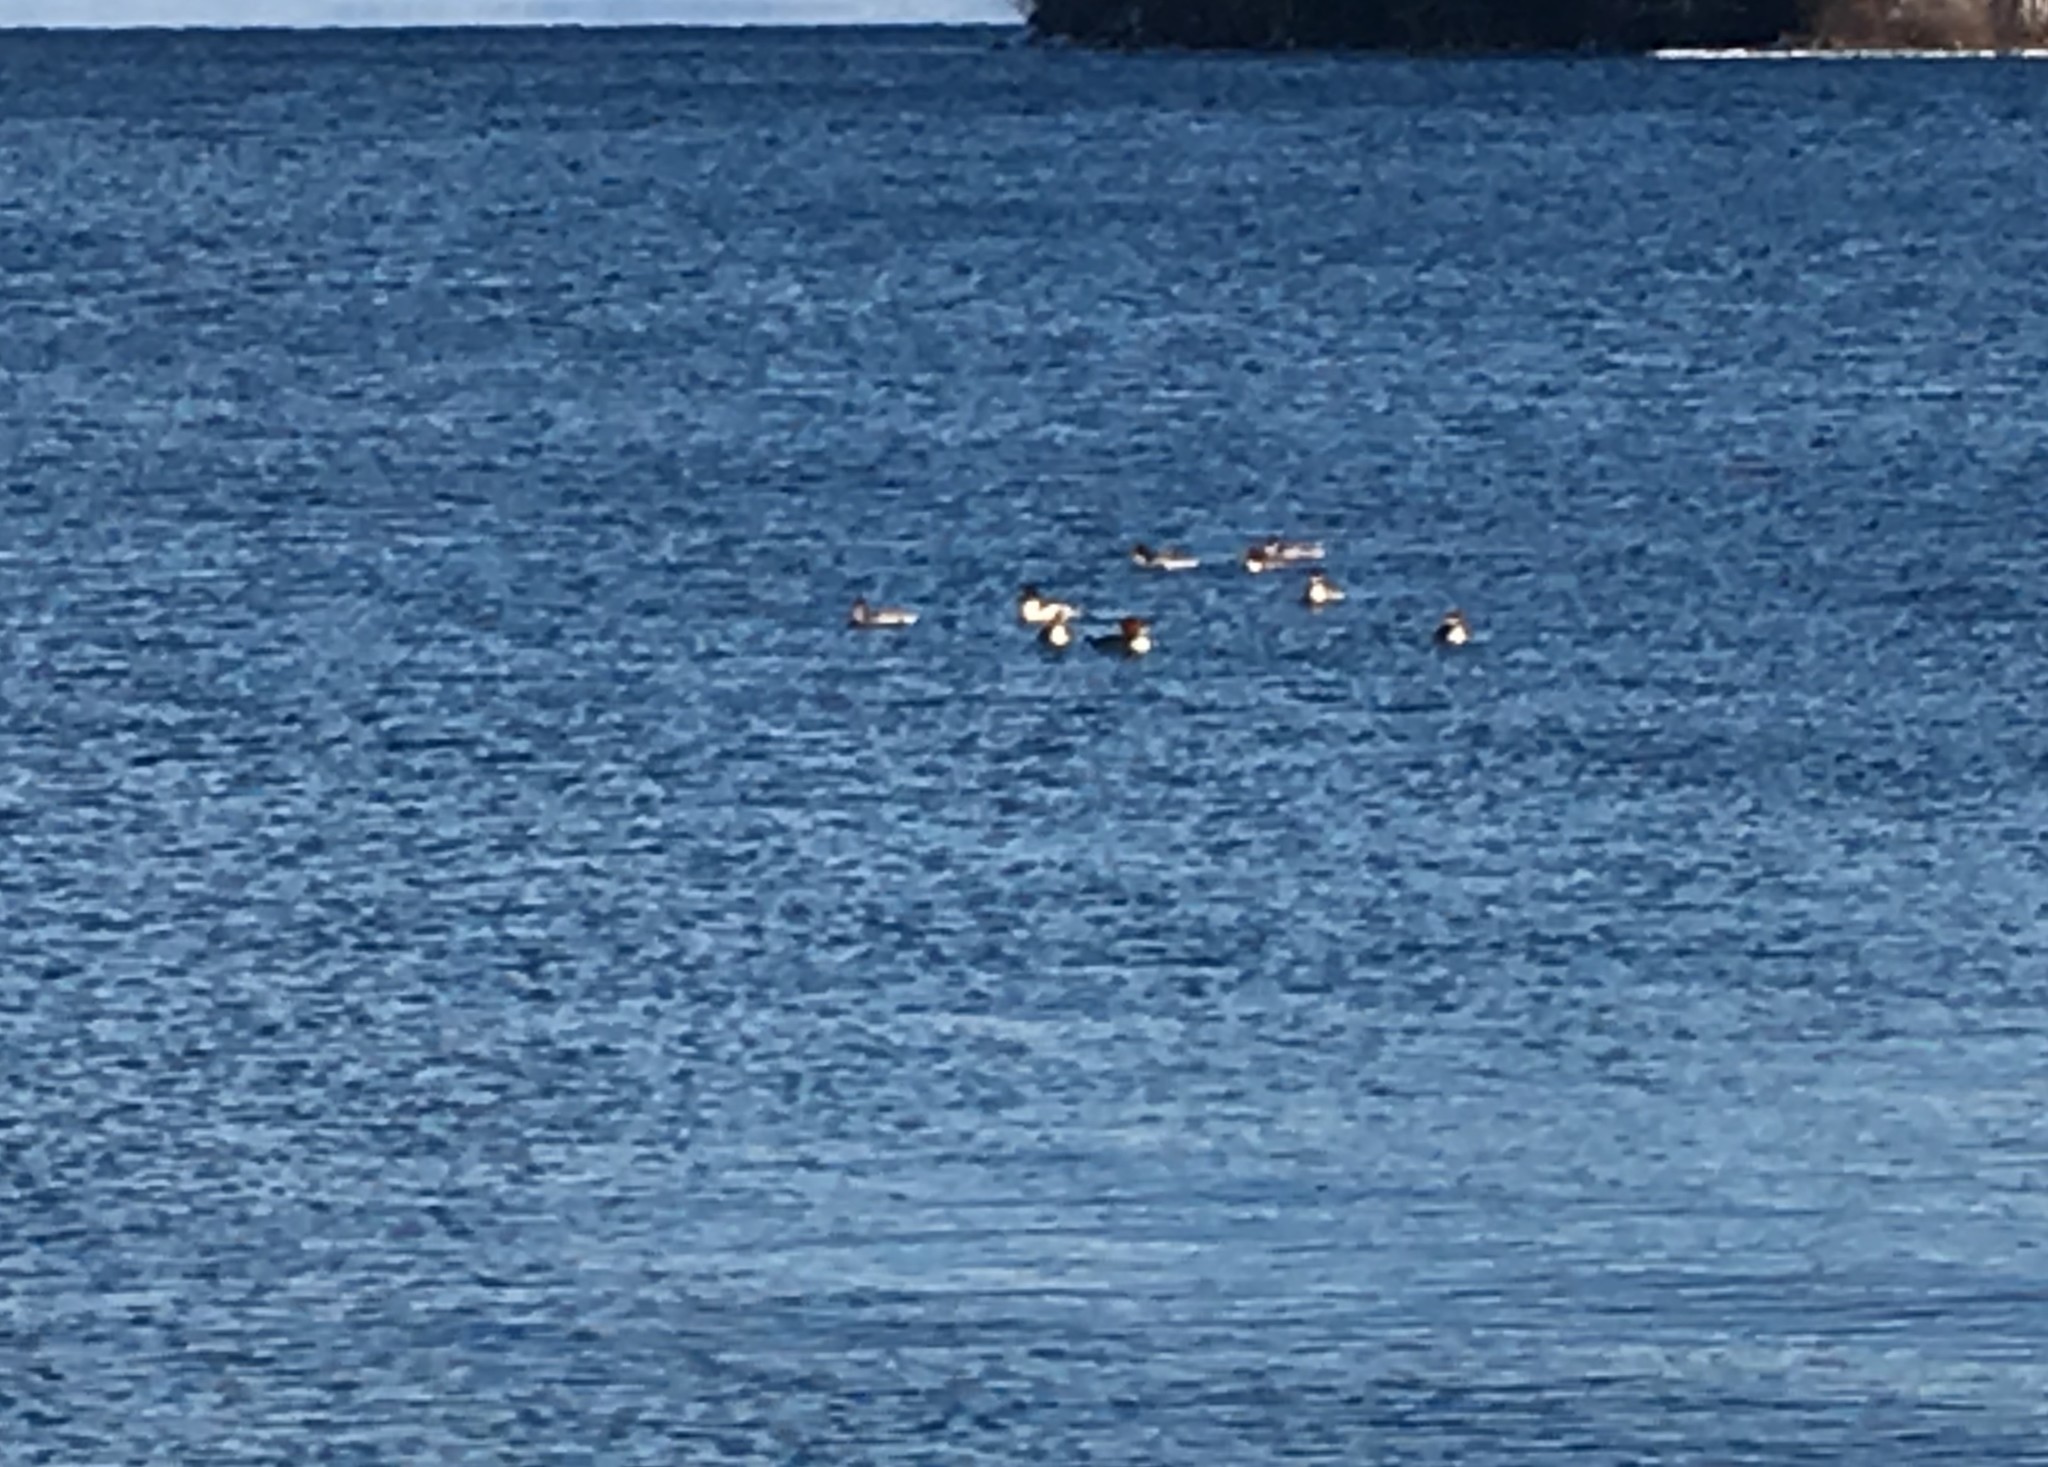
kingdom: Animalia
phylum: Chordata
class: Aves
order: Anseriformes
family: Anatidae
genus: Mergus
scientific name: Mergus merganser
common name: Common merganser
